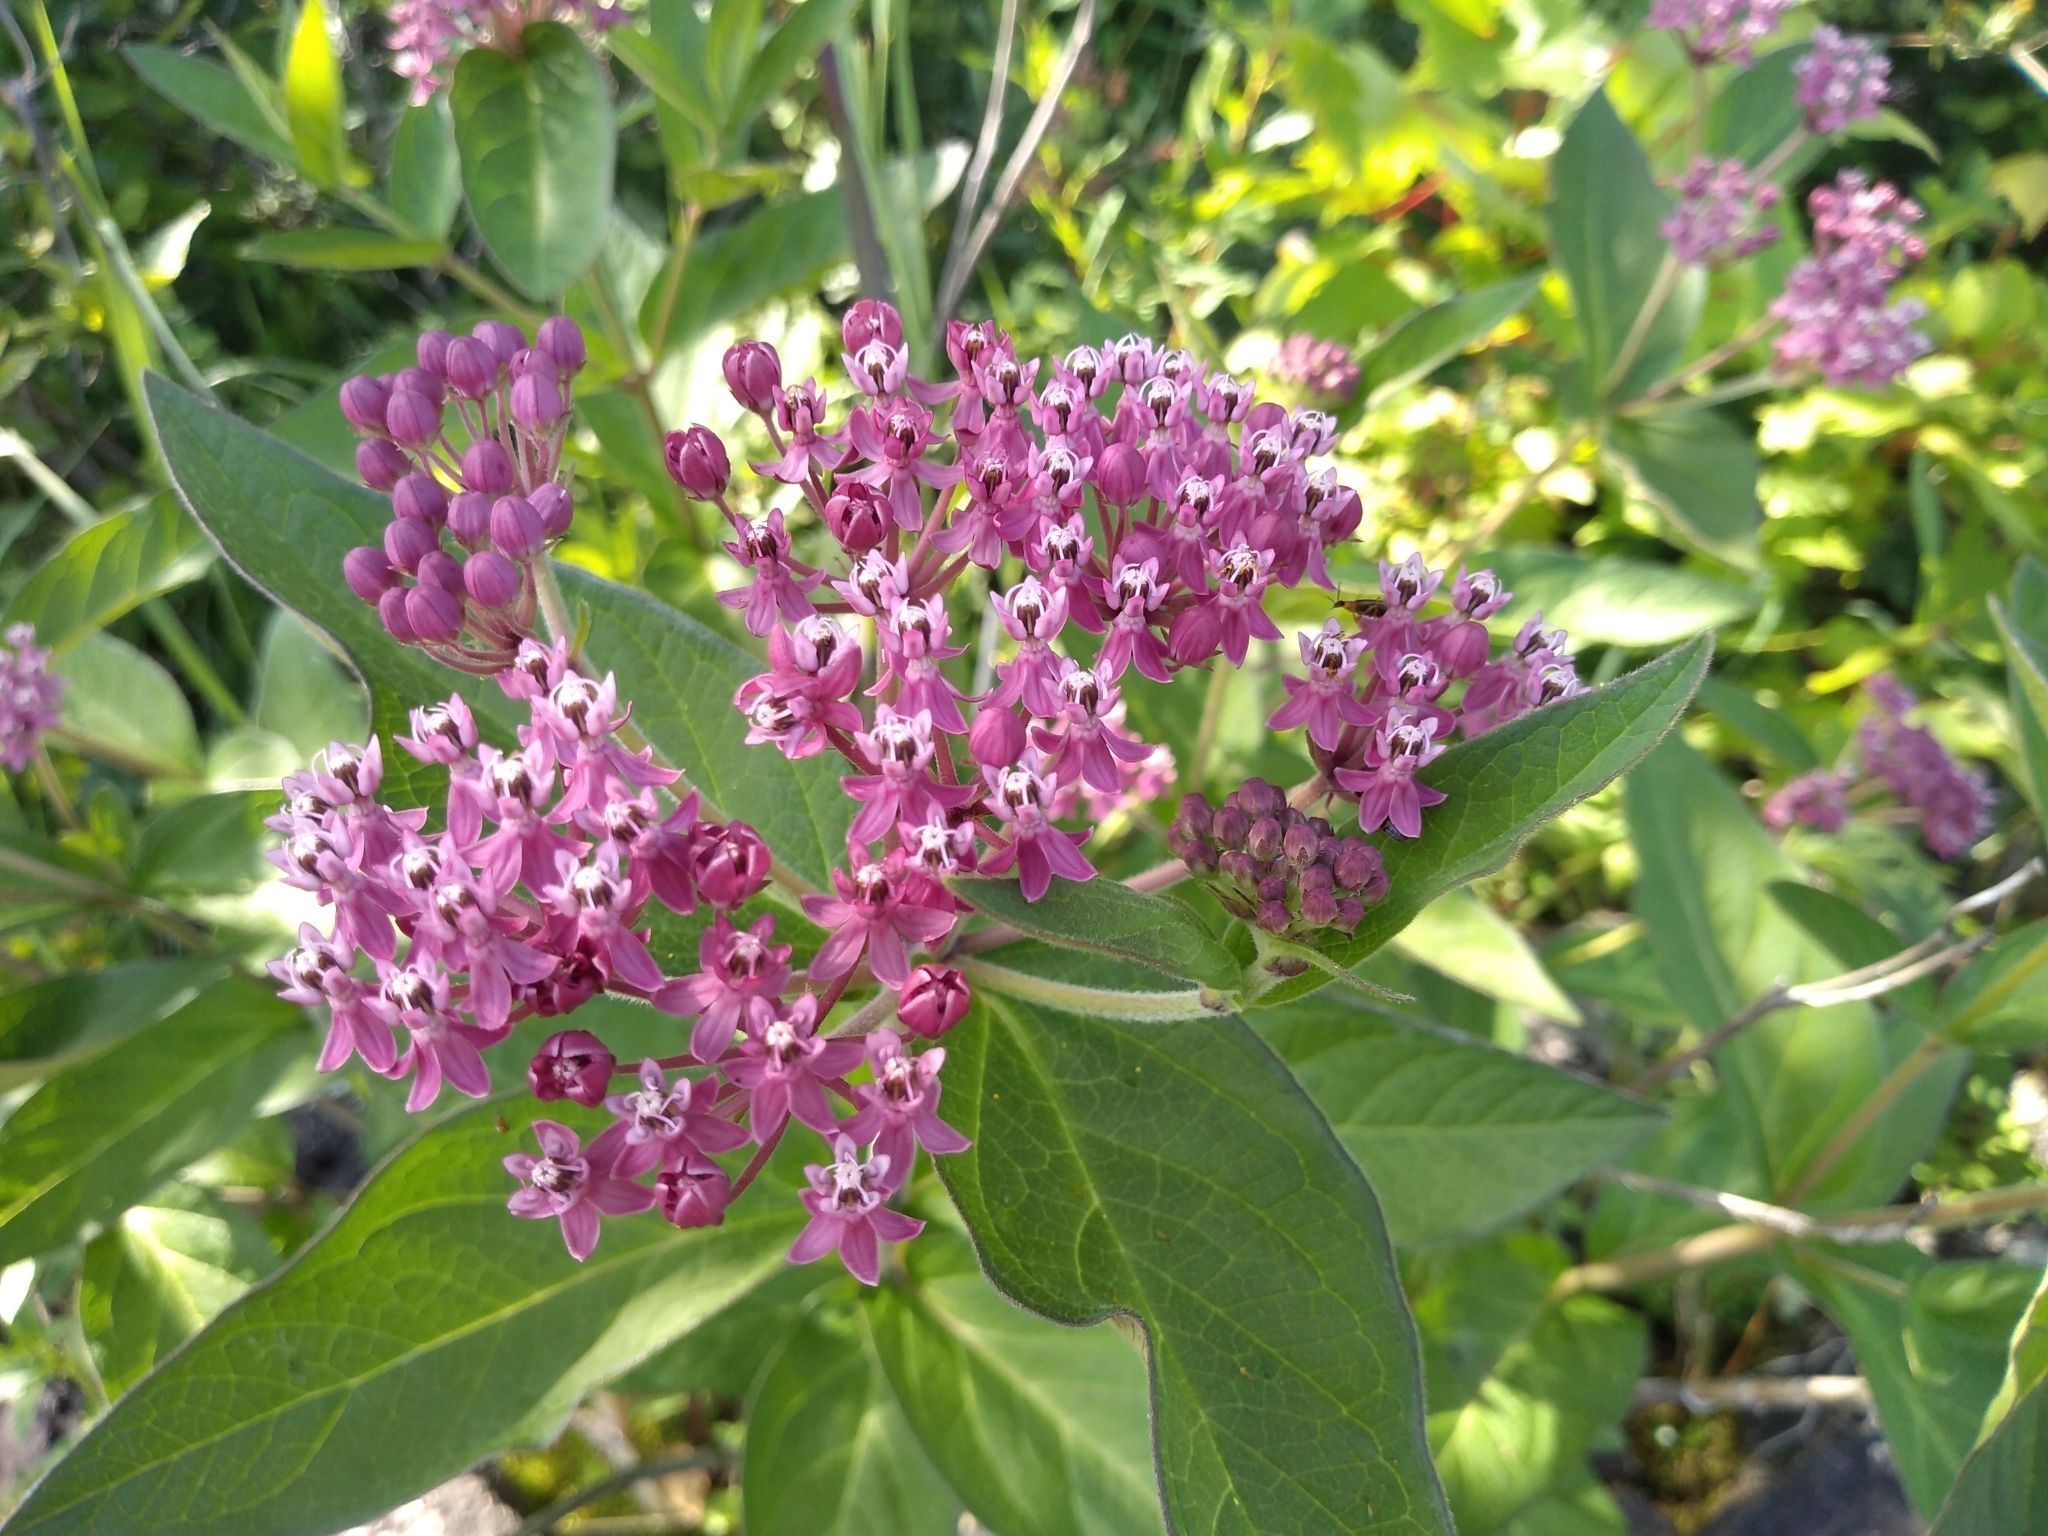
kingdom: Plantae
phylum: Tracheophyta
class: Magnoliopsida
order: Gentianales
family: Apocynaceae
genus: Asclepias
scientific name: Asclepias incarnata
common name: Swamp milkweed
